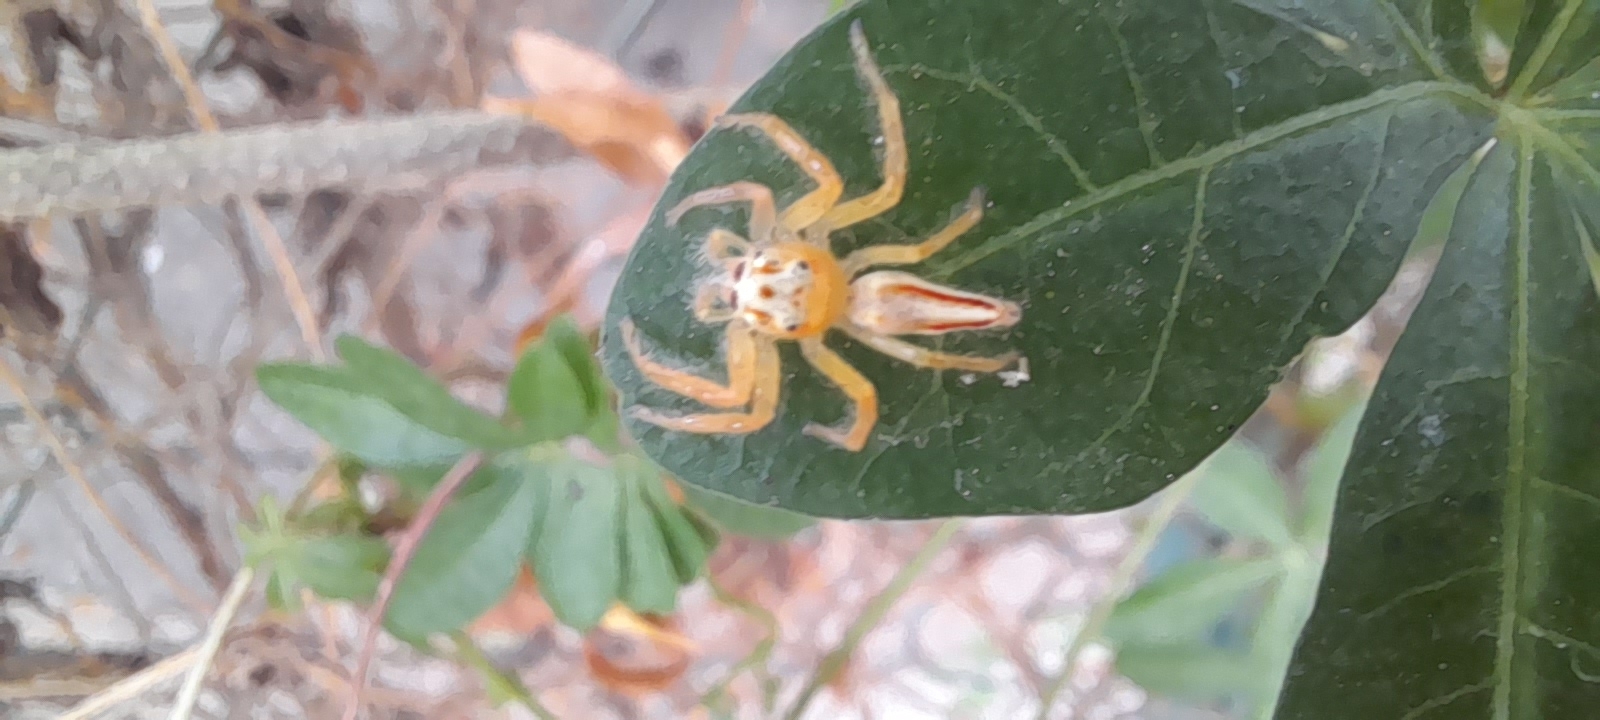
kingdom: Animalia
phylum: Arthropoda
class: Arachnida
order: Araneae
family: Salticidae
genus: Telamonia
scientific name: Telamonia dimidiata
